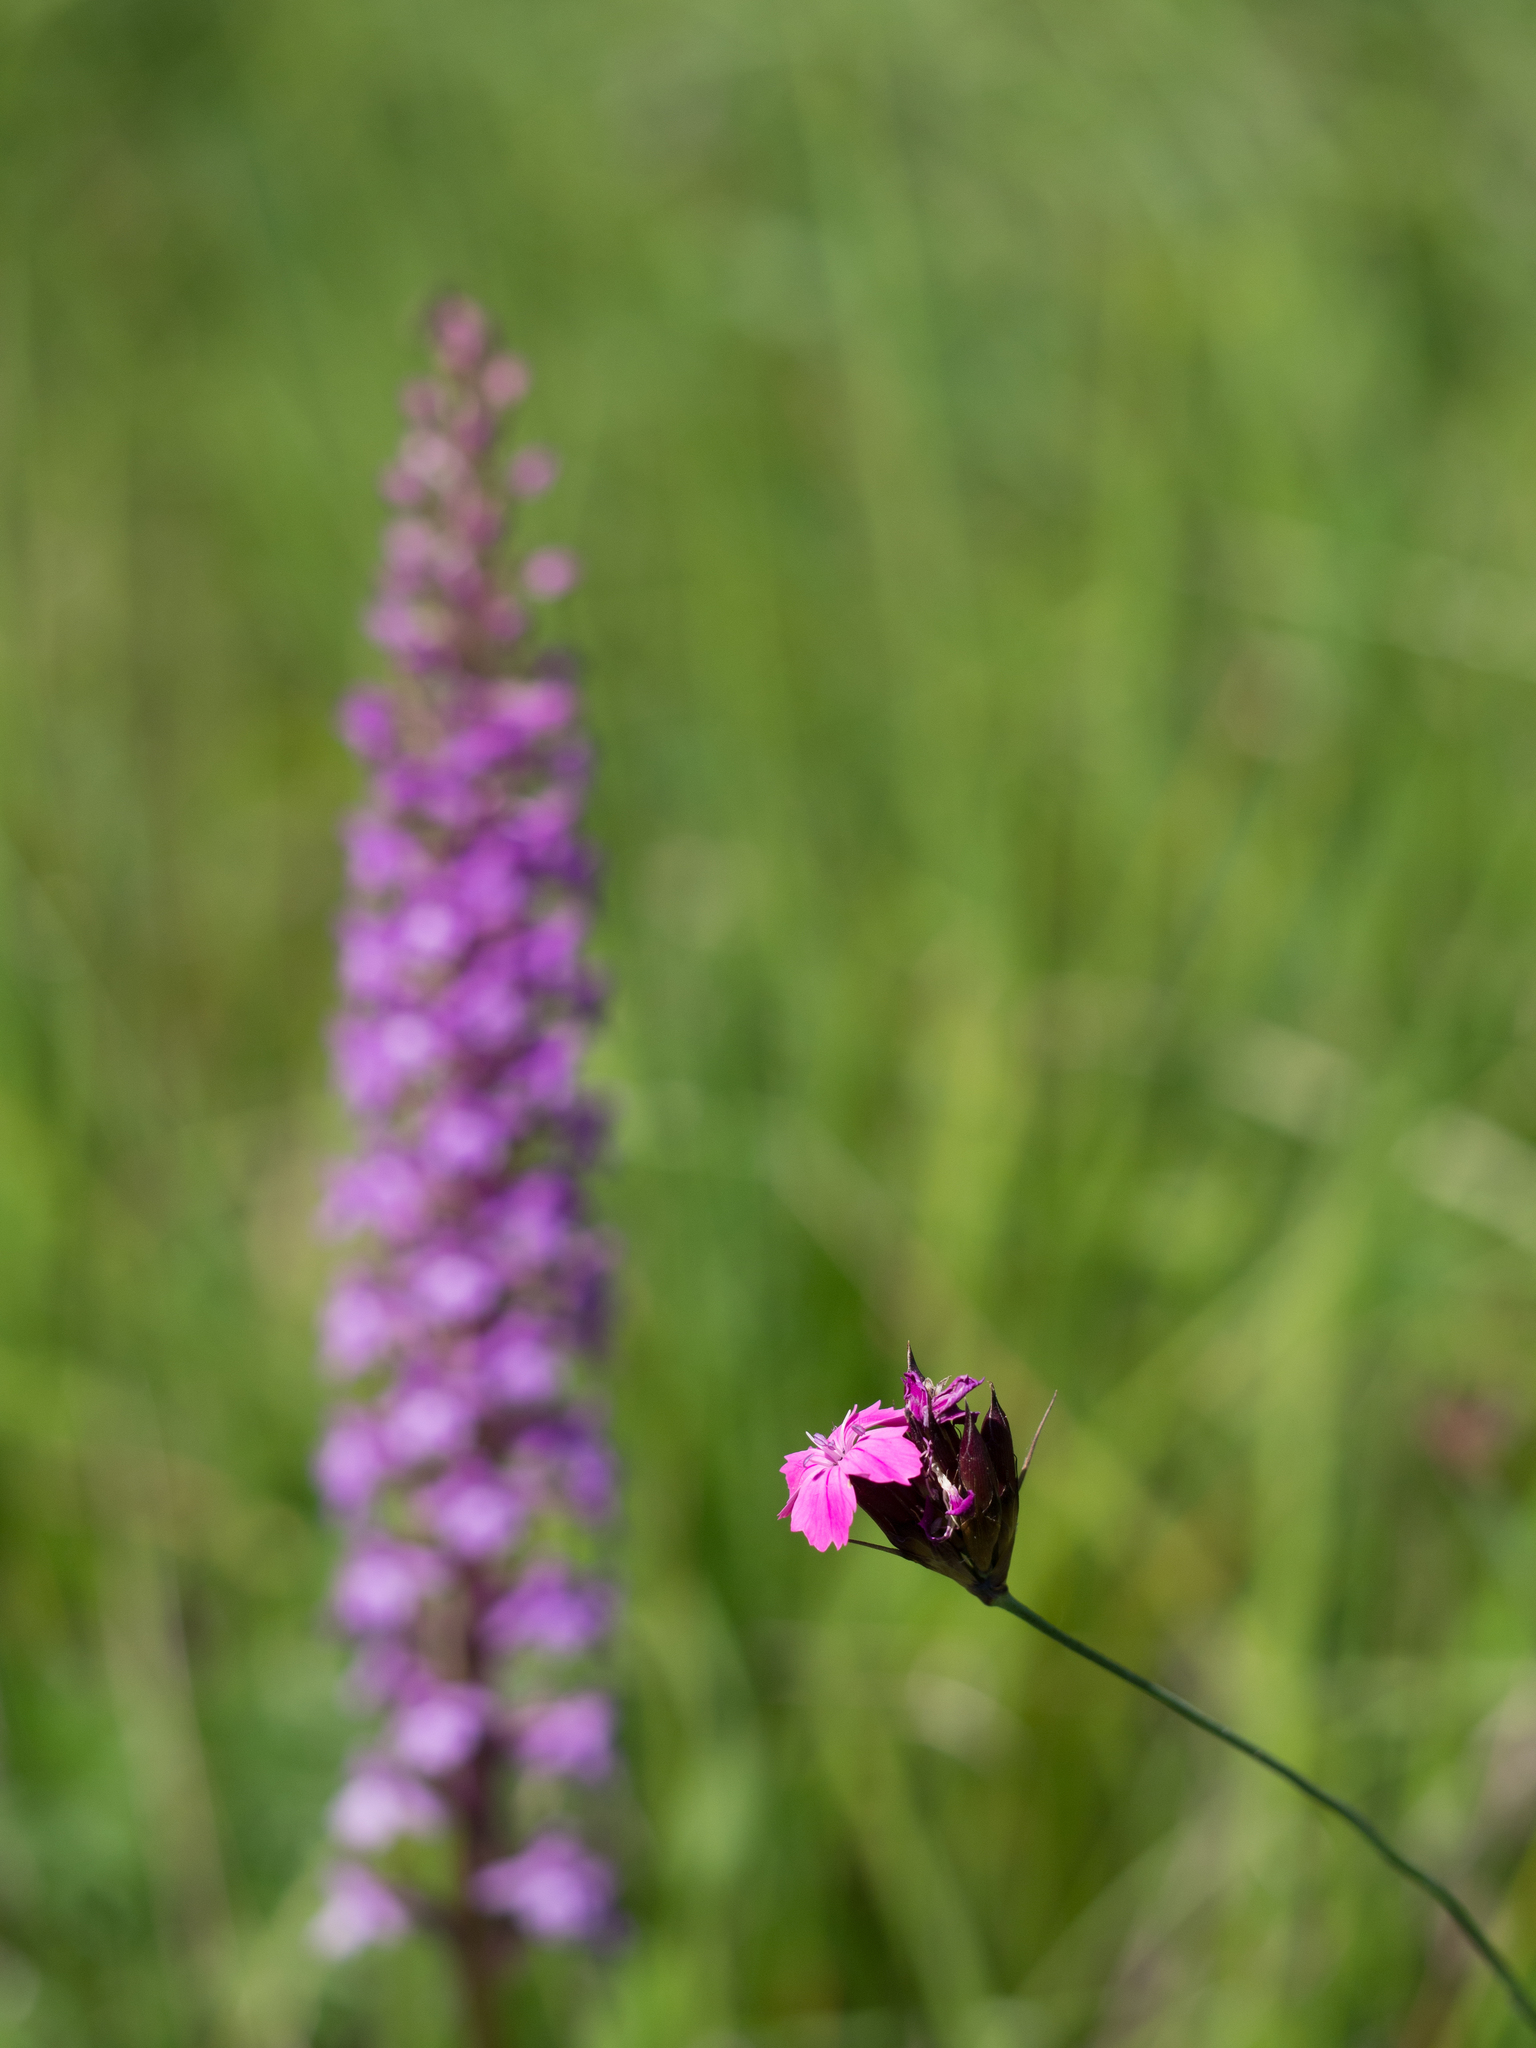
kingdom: Plantae
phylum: Tracheophyta
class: Magnoliopsida
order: Caryophyllales
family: Caryophyllaceae
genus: Dianthus
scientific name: Dianthus carthusianorum
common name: Carthusian pink
